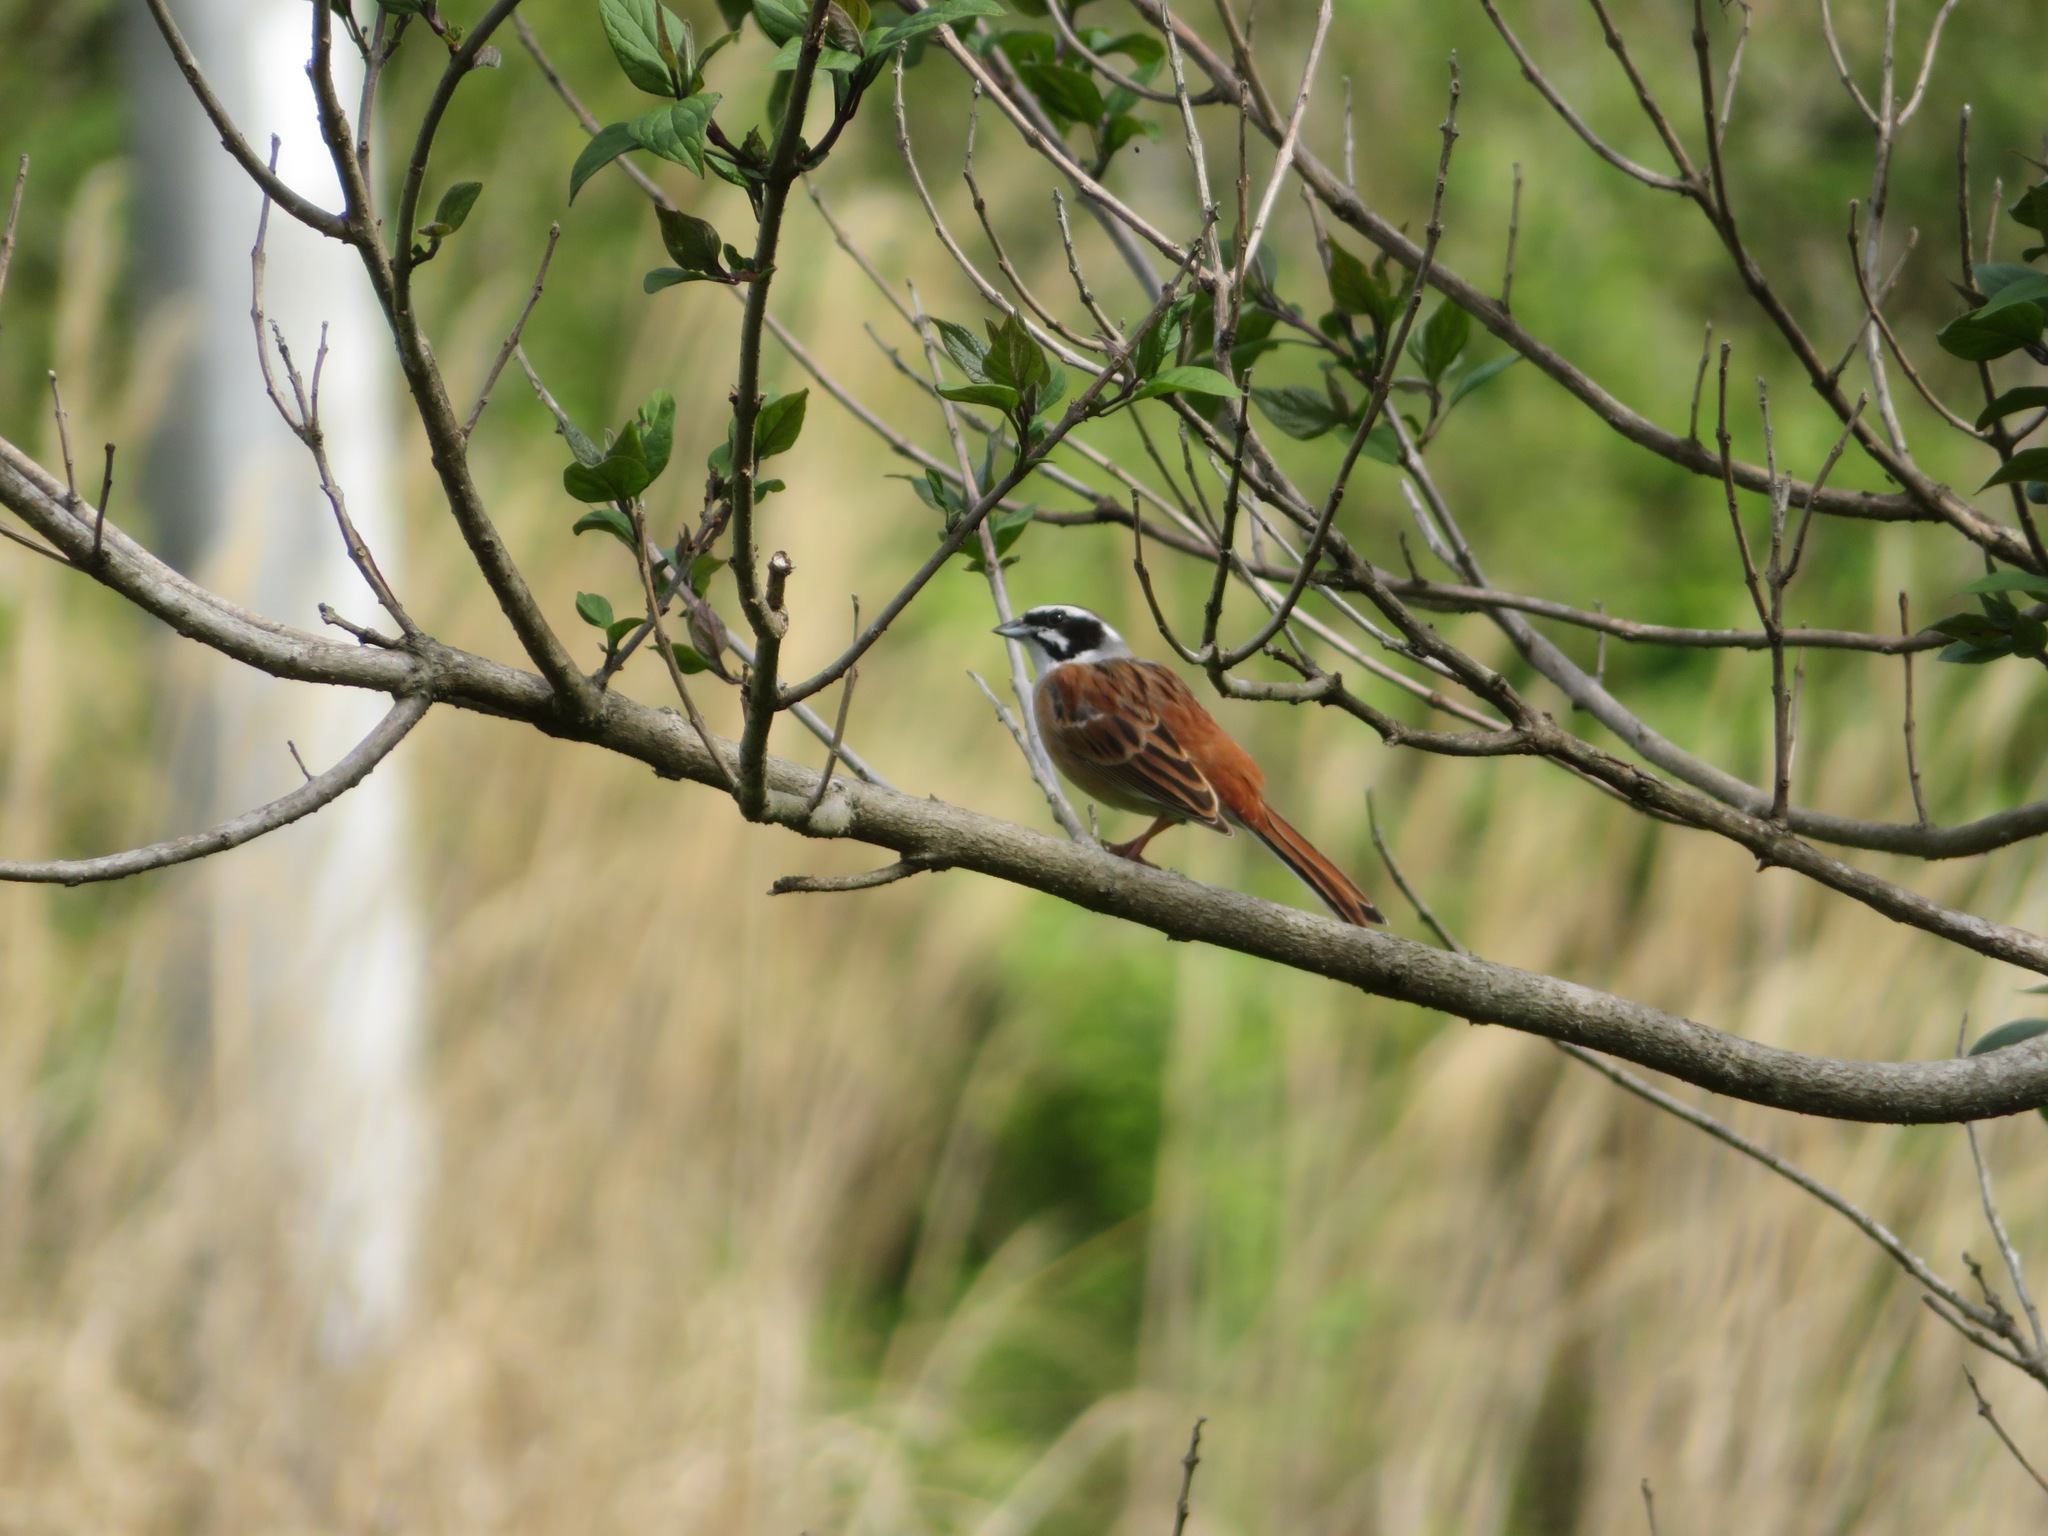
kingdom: Animalia
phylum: Chordata
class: Aves
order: Passeriformes
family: Emberizidae
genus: Emberiza
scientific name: Emberiza cioides
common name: Meadow bunting
